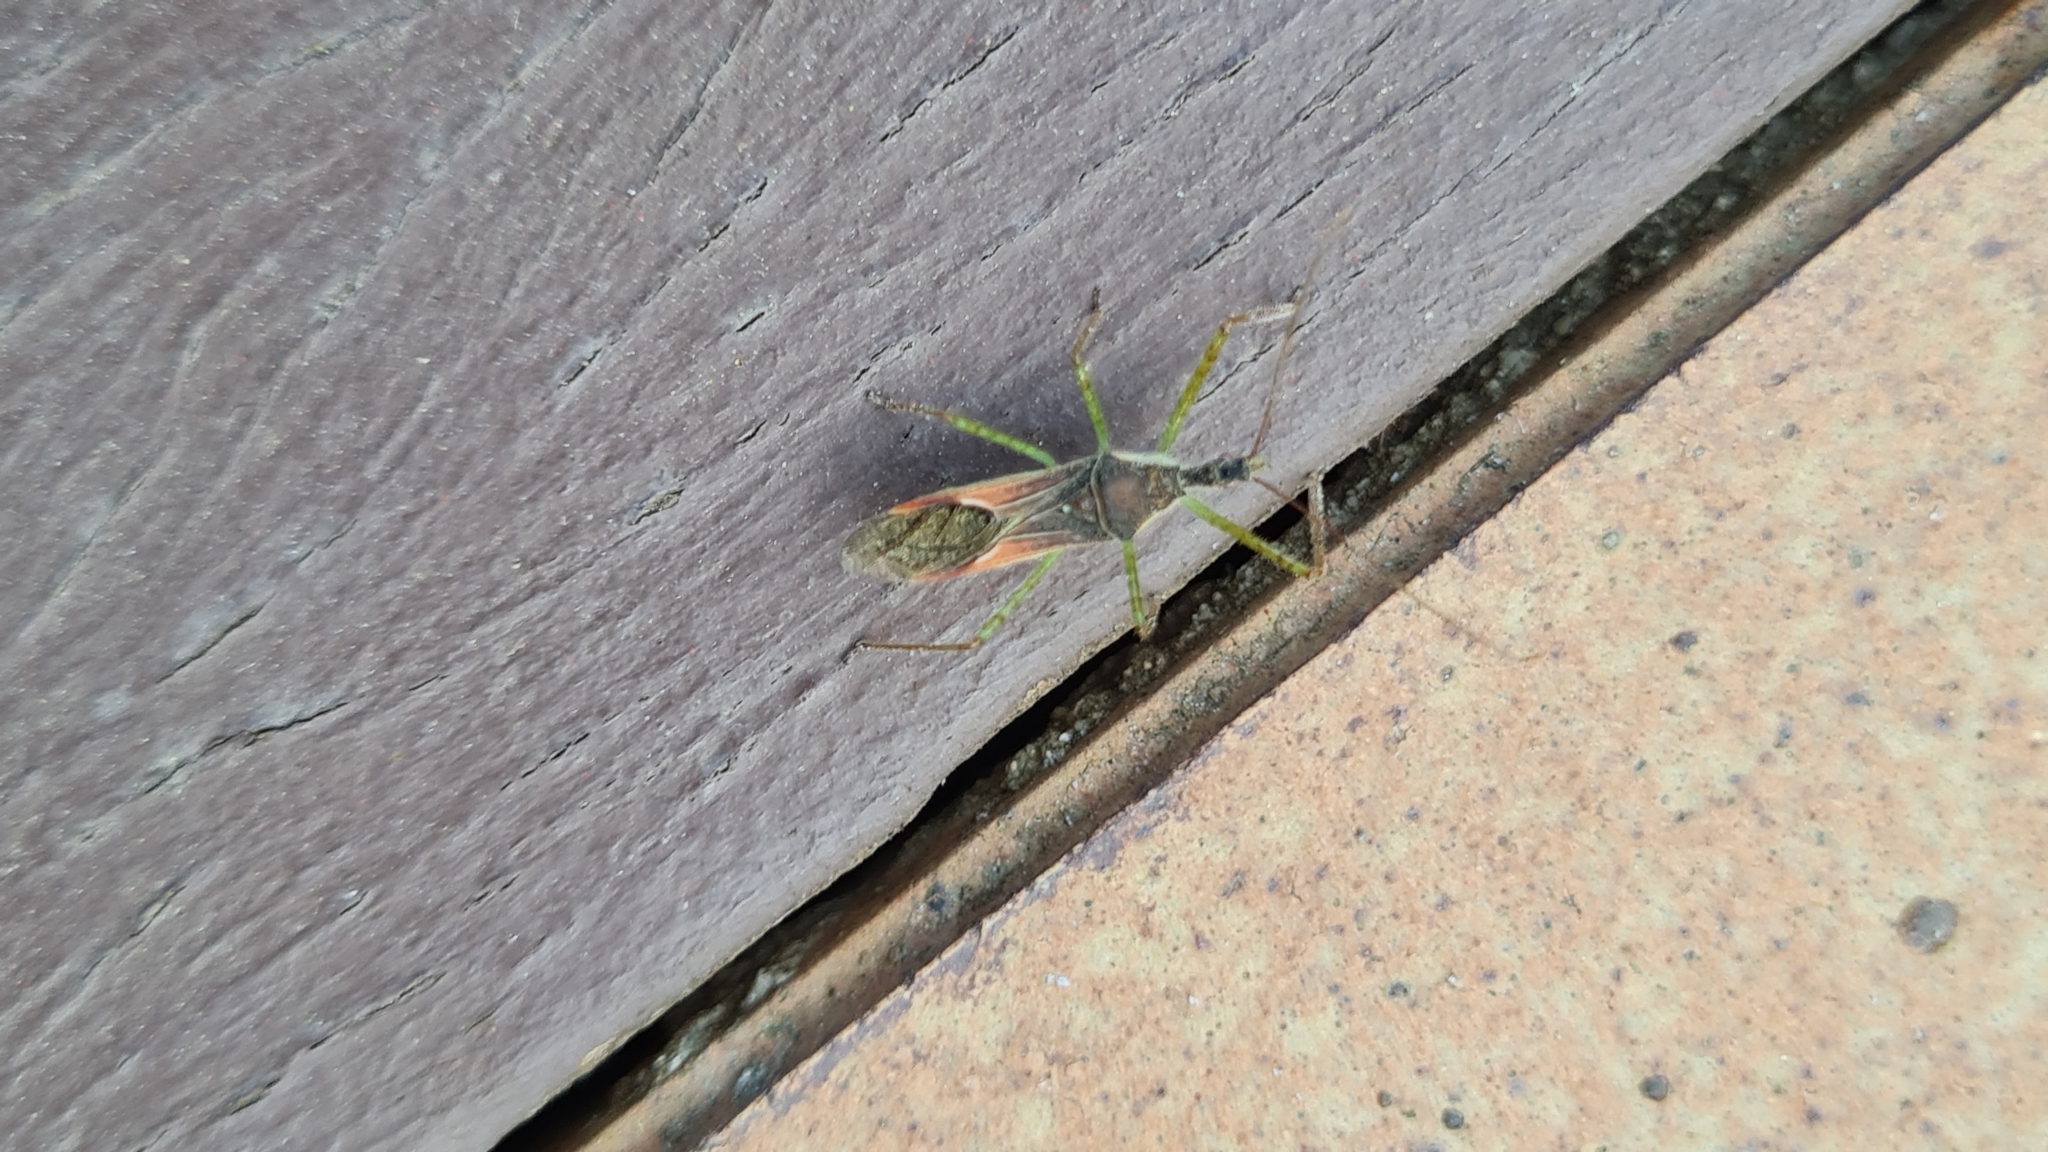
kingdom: Animalia
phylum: Arthropoda
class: Insecta
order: Hemiptera
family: Reduviidae
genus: Zelus
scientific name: Zelus renardii
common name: Assassin bug
